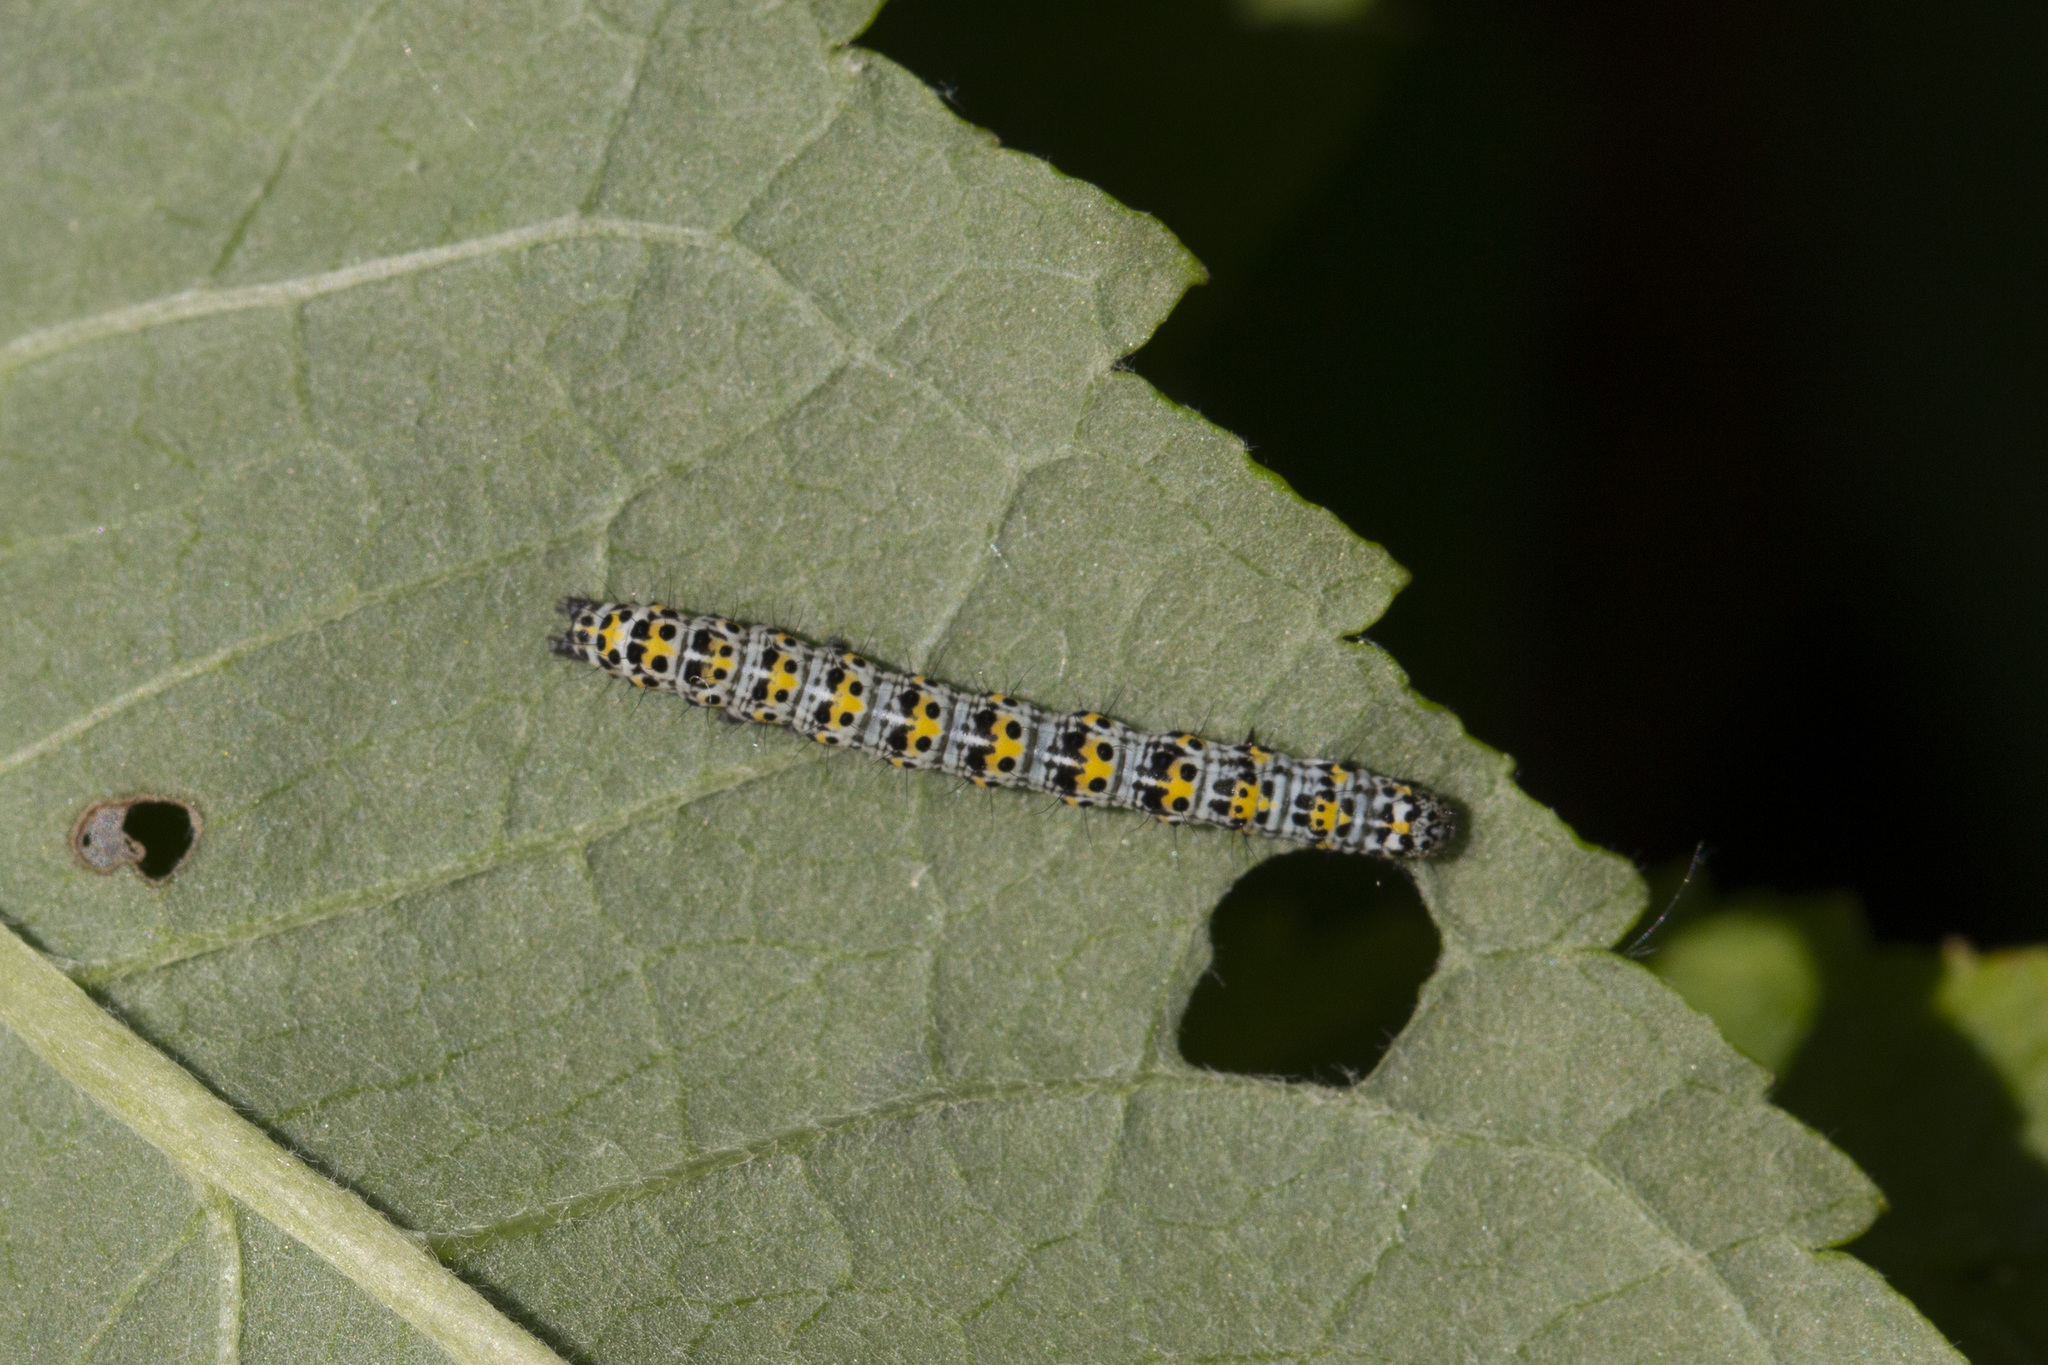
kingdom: Animalia
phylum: Arthropoda
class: Insecta
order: Lepidoptera
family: Noctuidae
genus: Cucullia
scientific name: Cucullia verbasci
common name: Mullein
